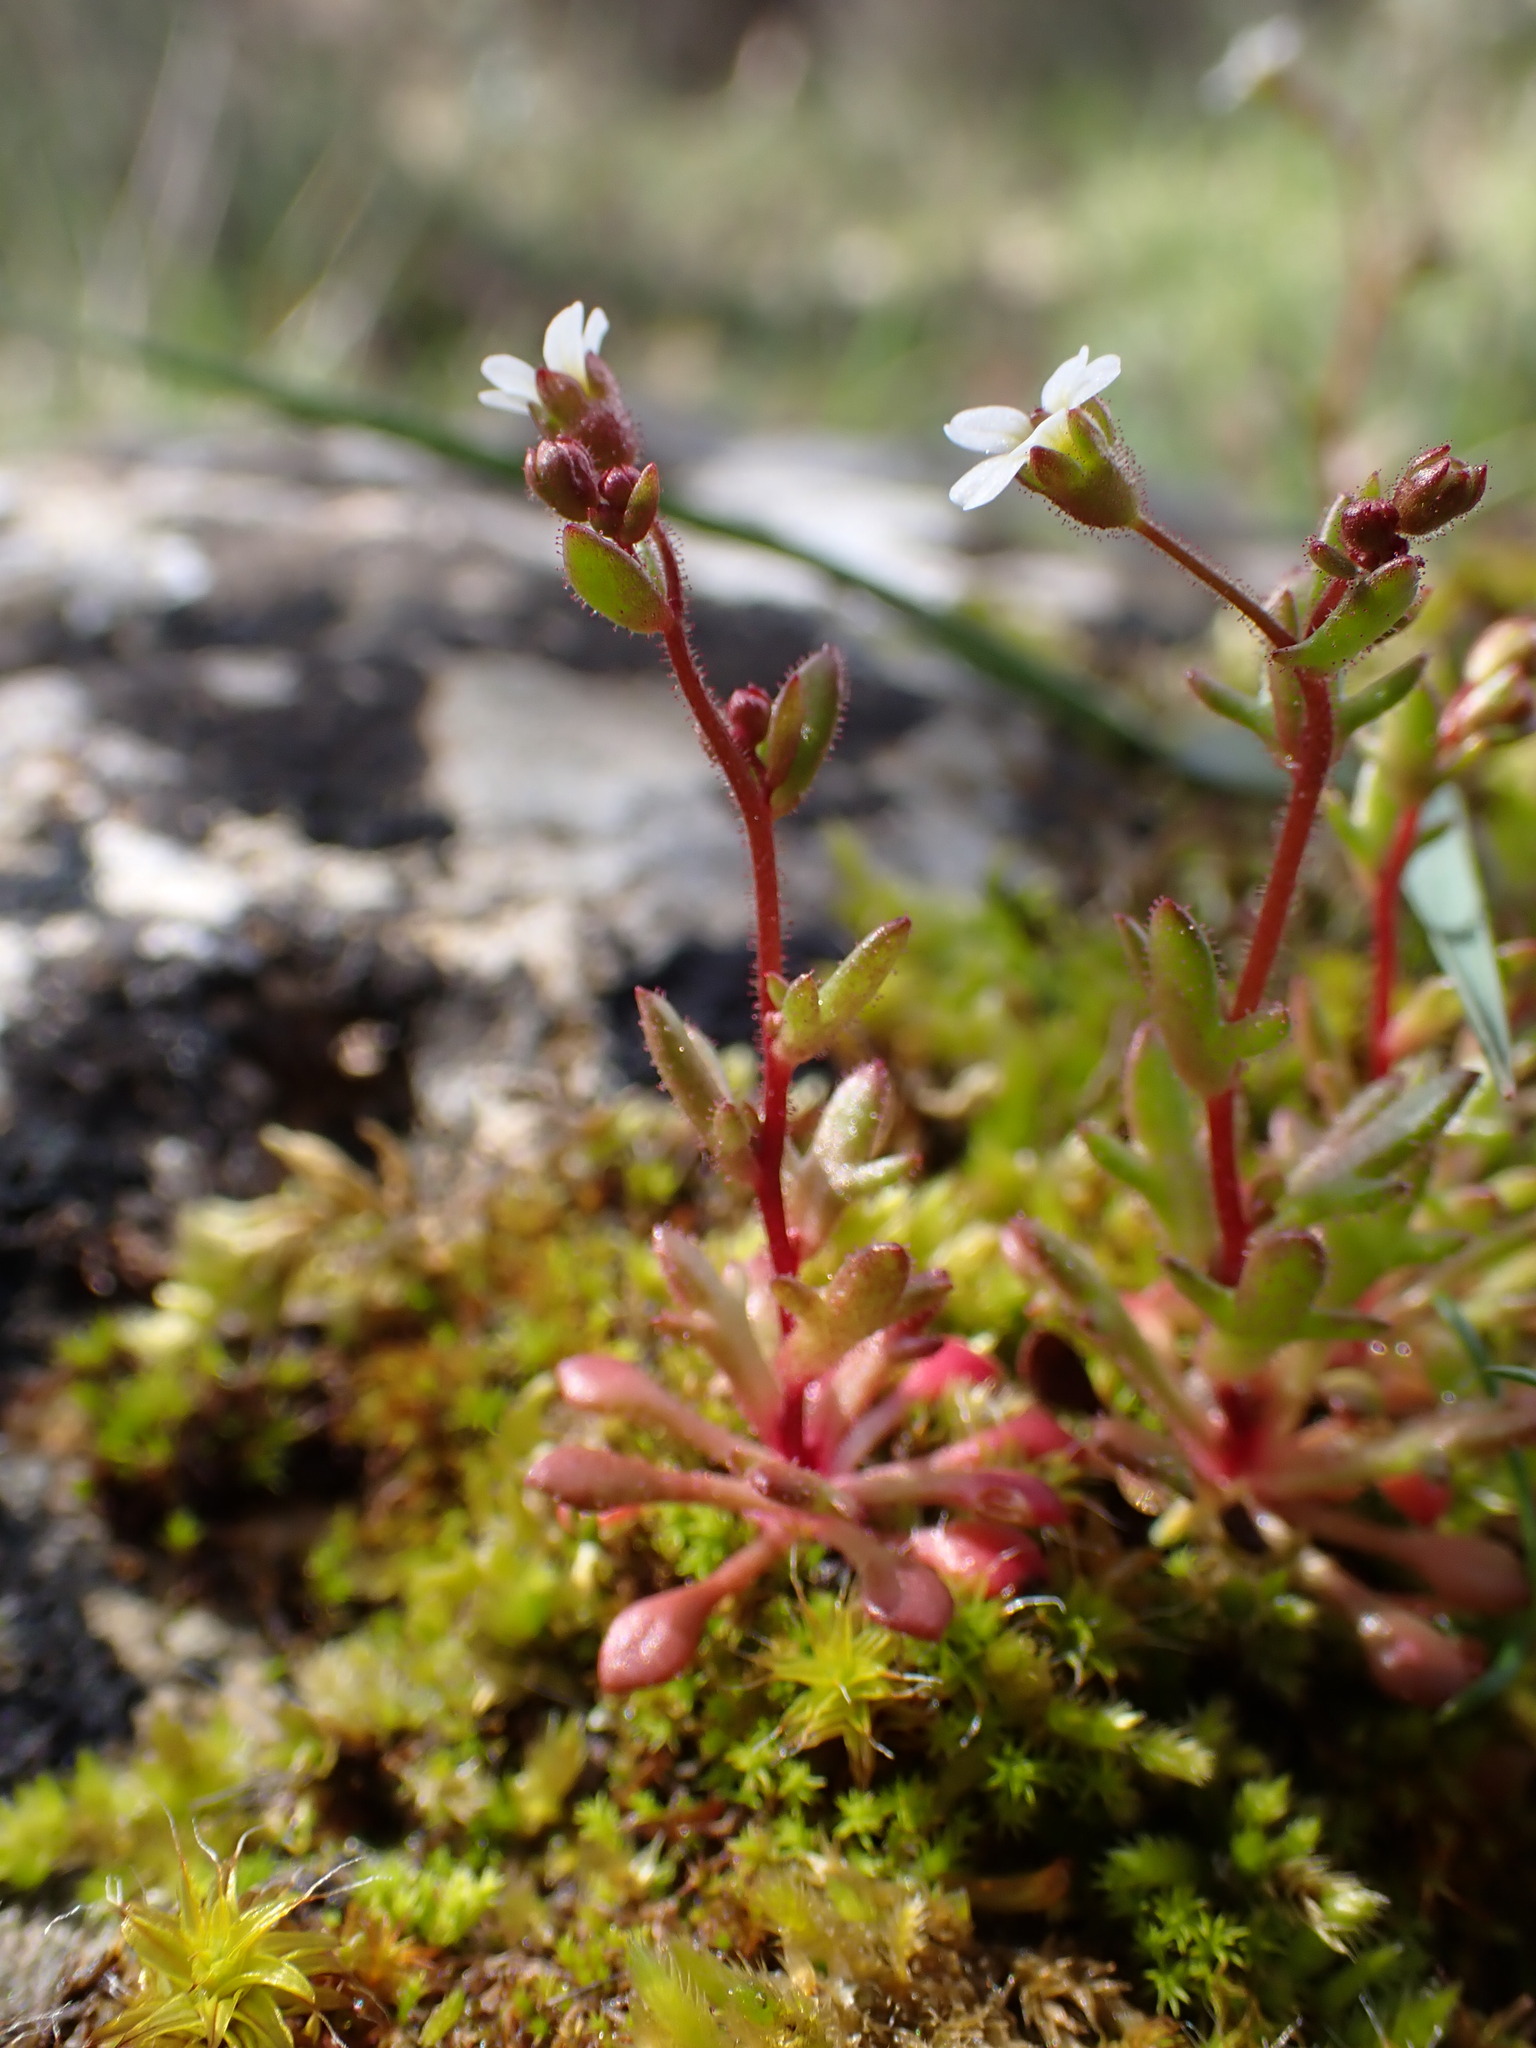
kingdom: Plantae
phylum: Tracheophyta
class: Magnoliopsida
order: Saxifragales
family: Saxifragaceae
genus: Saxifraga
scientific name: Saxifraga tridactylites
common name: Rue-leaved saxifrage
